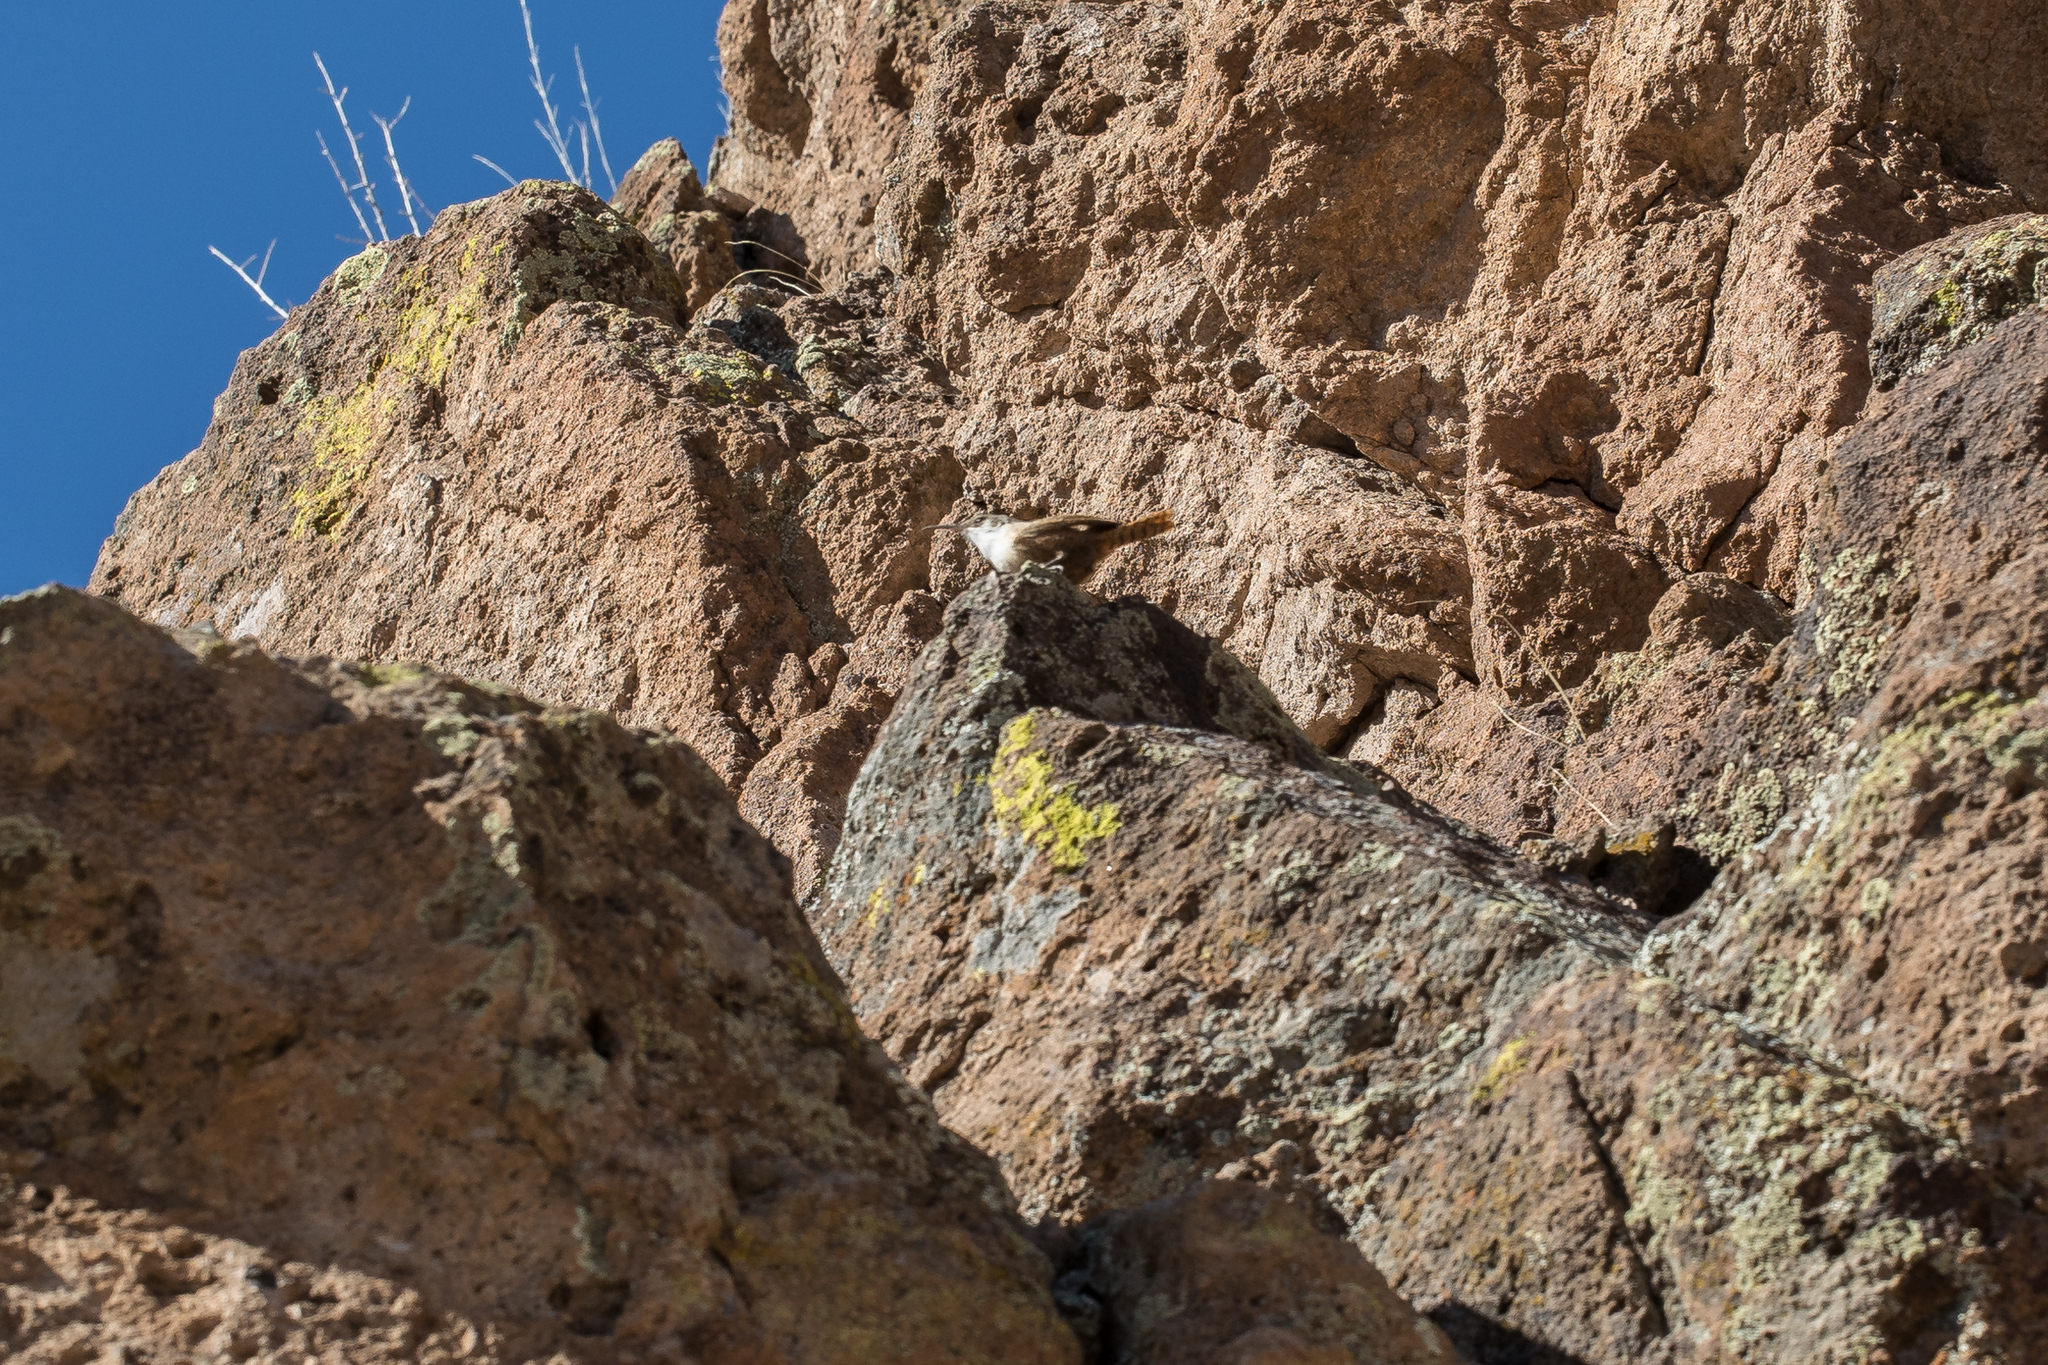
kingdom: Animalia
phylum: Chordata
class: Aves
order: Passeriformes
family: Troglodytidae
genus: Catherpes
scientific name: Catherpes mexicanus
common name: Canyon wren
